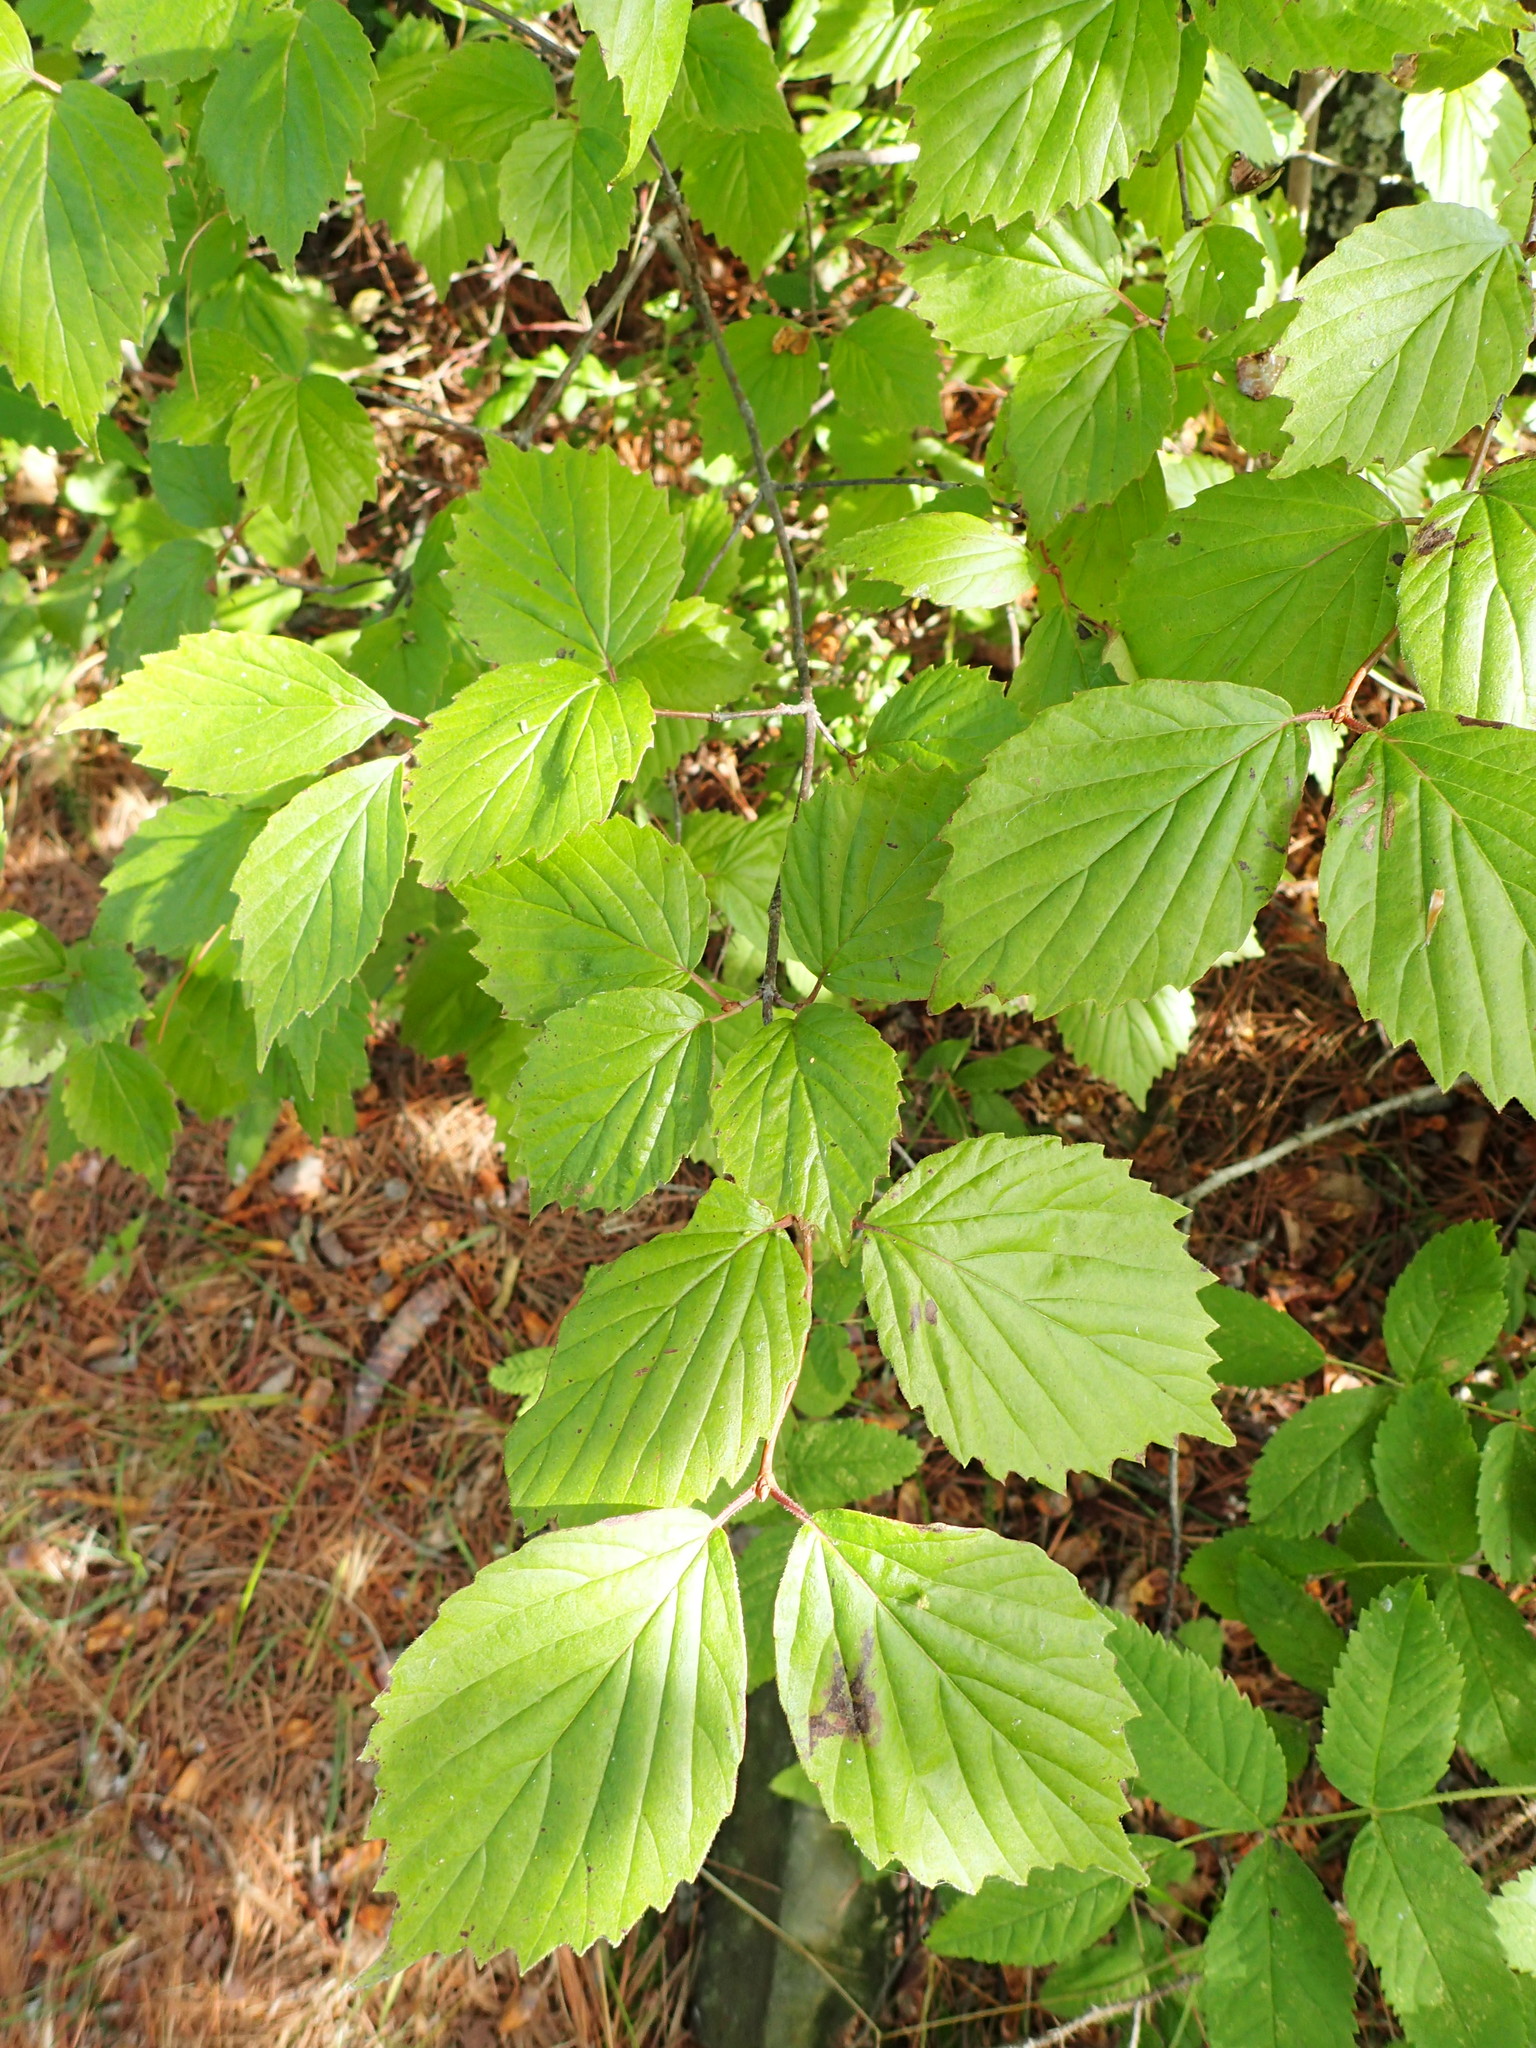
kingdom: Plantae
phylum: Tracheophyta
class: Magnoliopsida
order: Dipsacales
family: Viburnaceae
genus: Viburnum
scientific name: Viburnum rafinesqueanum
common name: Downy arrow-wood
